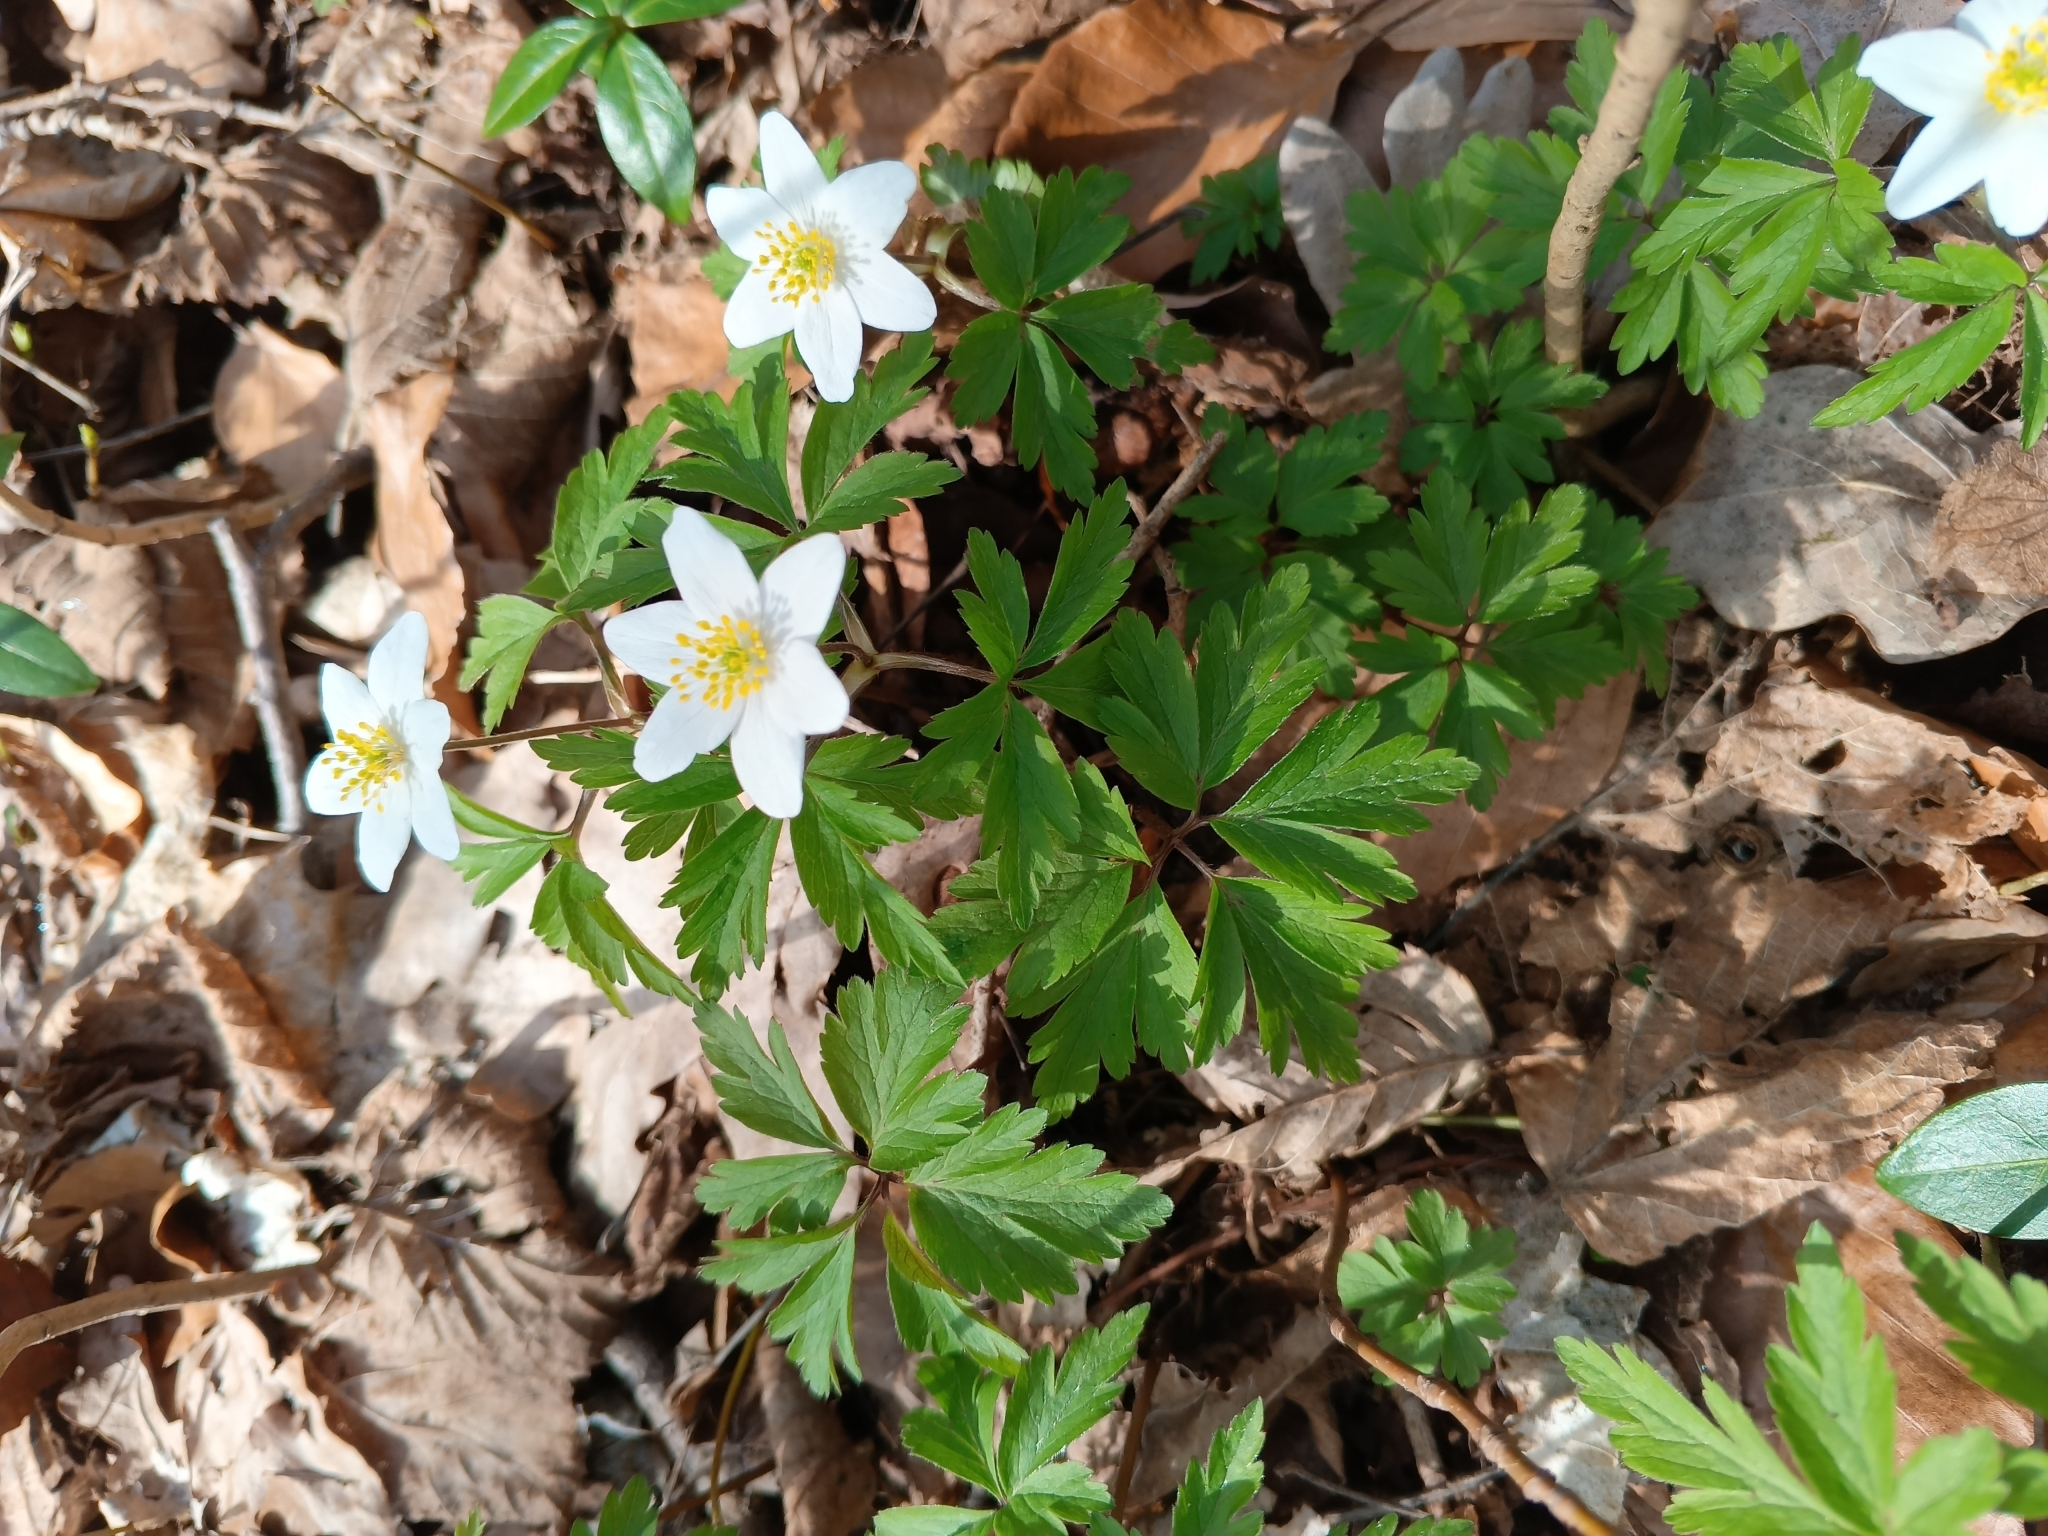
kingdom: Plantae
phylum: Tracheophyta
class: Magnoliopsida
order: Ranunculales
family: Ranunculaceae
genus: Anemone
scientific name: Anemone nemorosa
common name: Wood anemone
